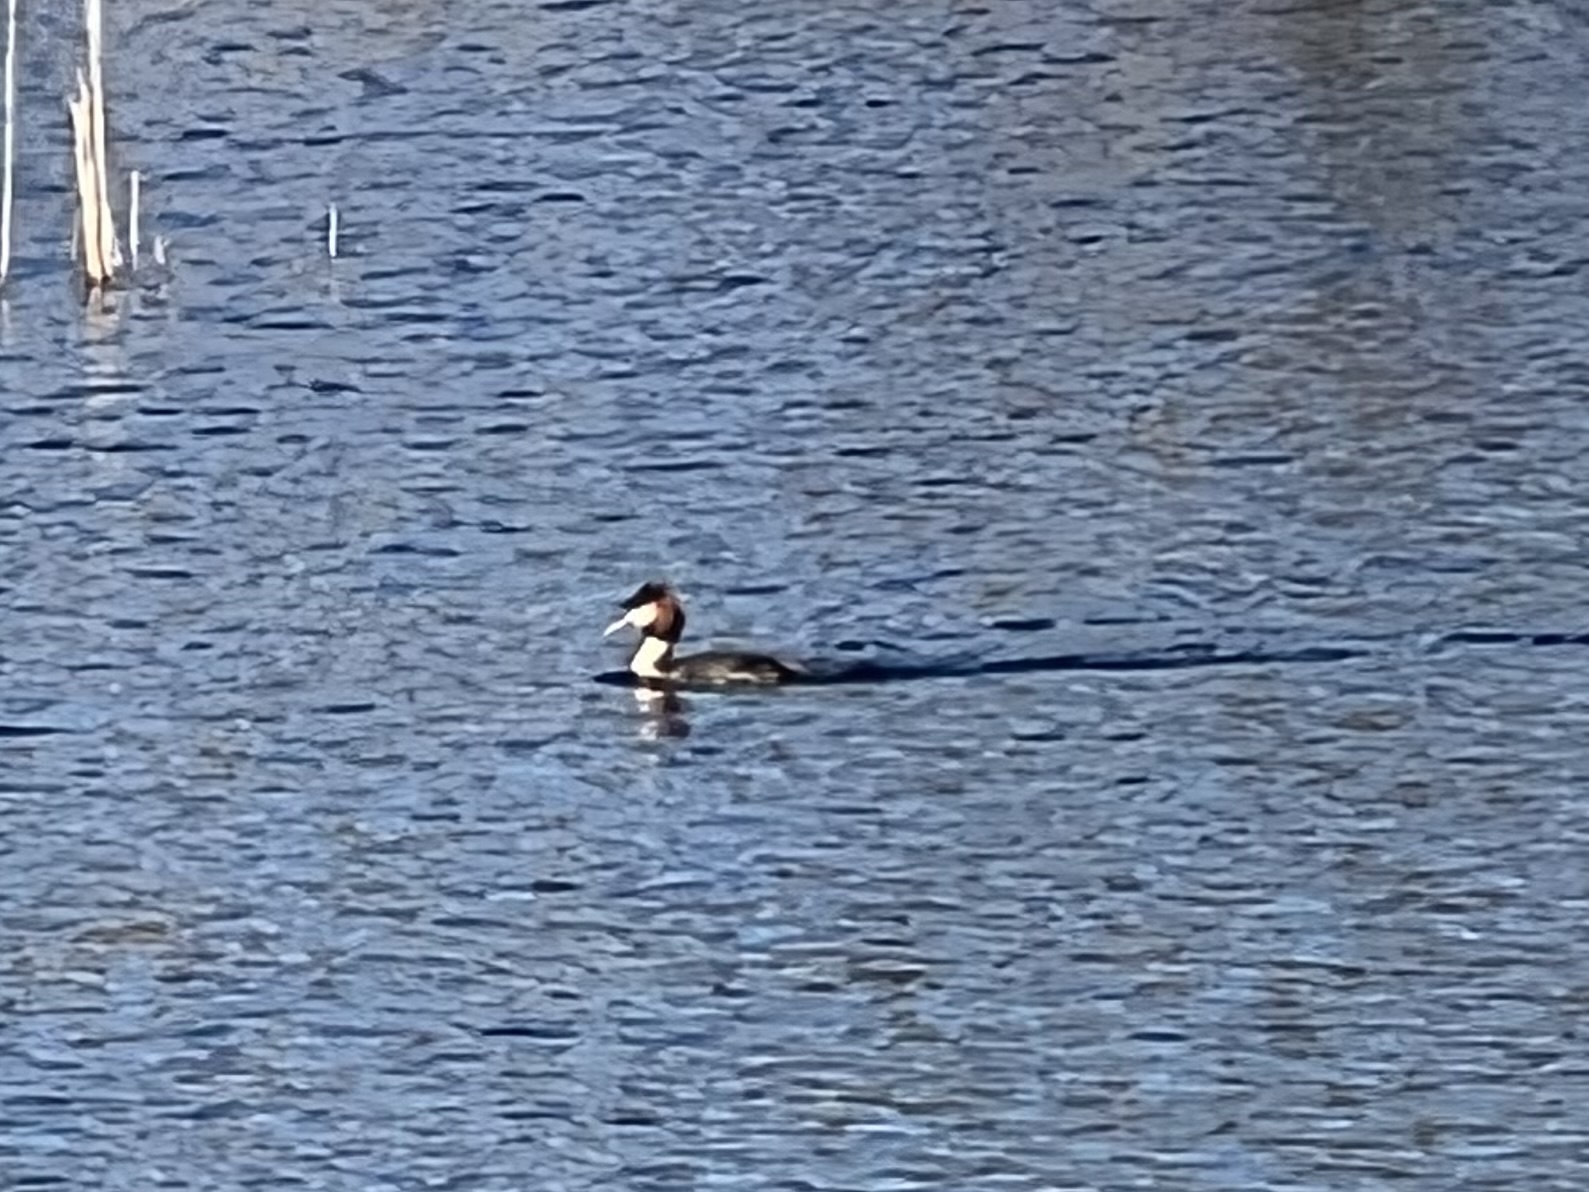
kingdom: Animalia
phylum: Chordata
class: Aves
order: Podicipediformes
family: Podicipedidae
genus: Podiceps
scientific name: Podiceps cristatus
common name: Great crested grebe
